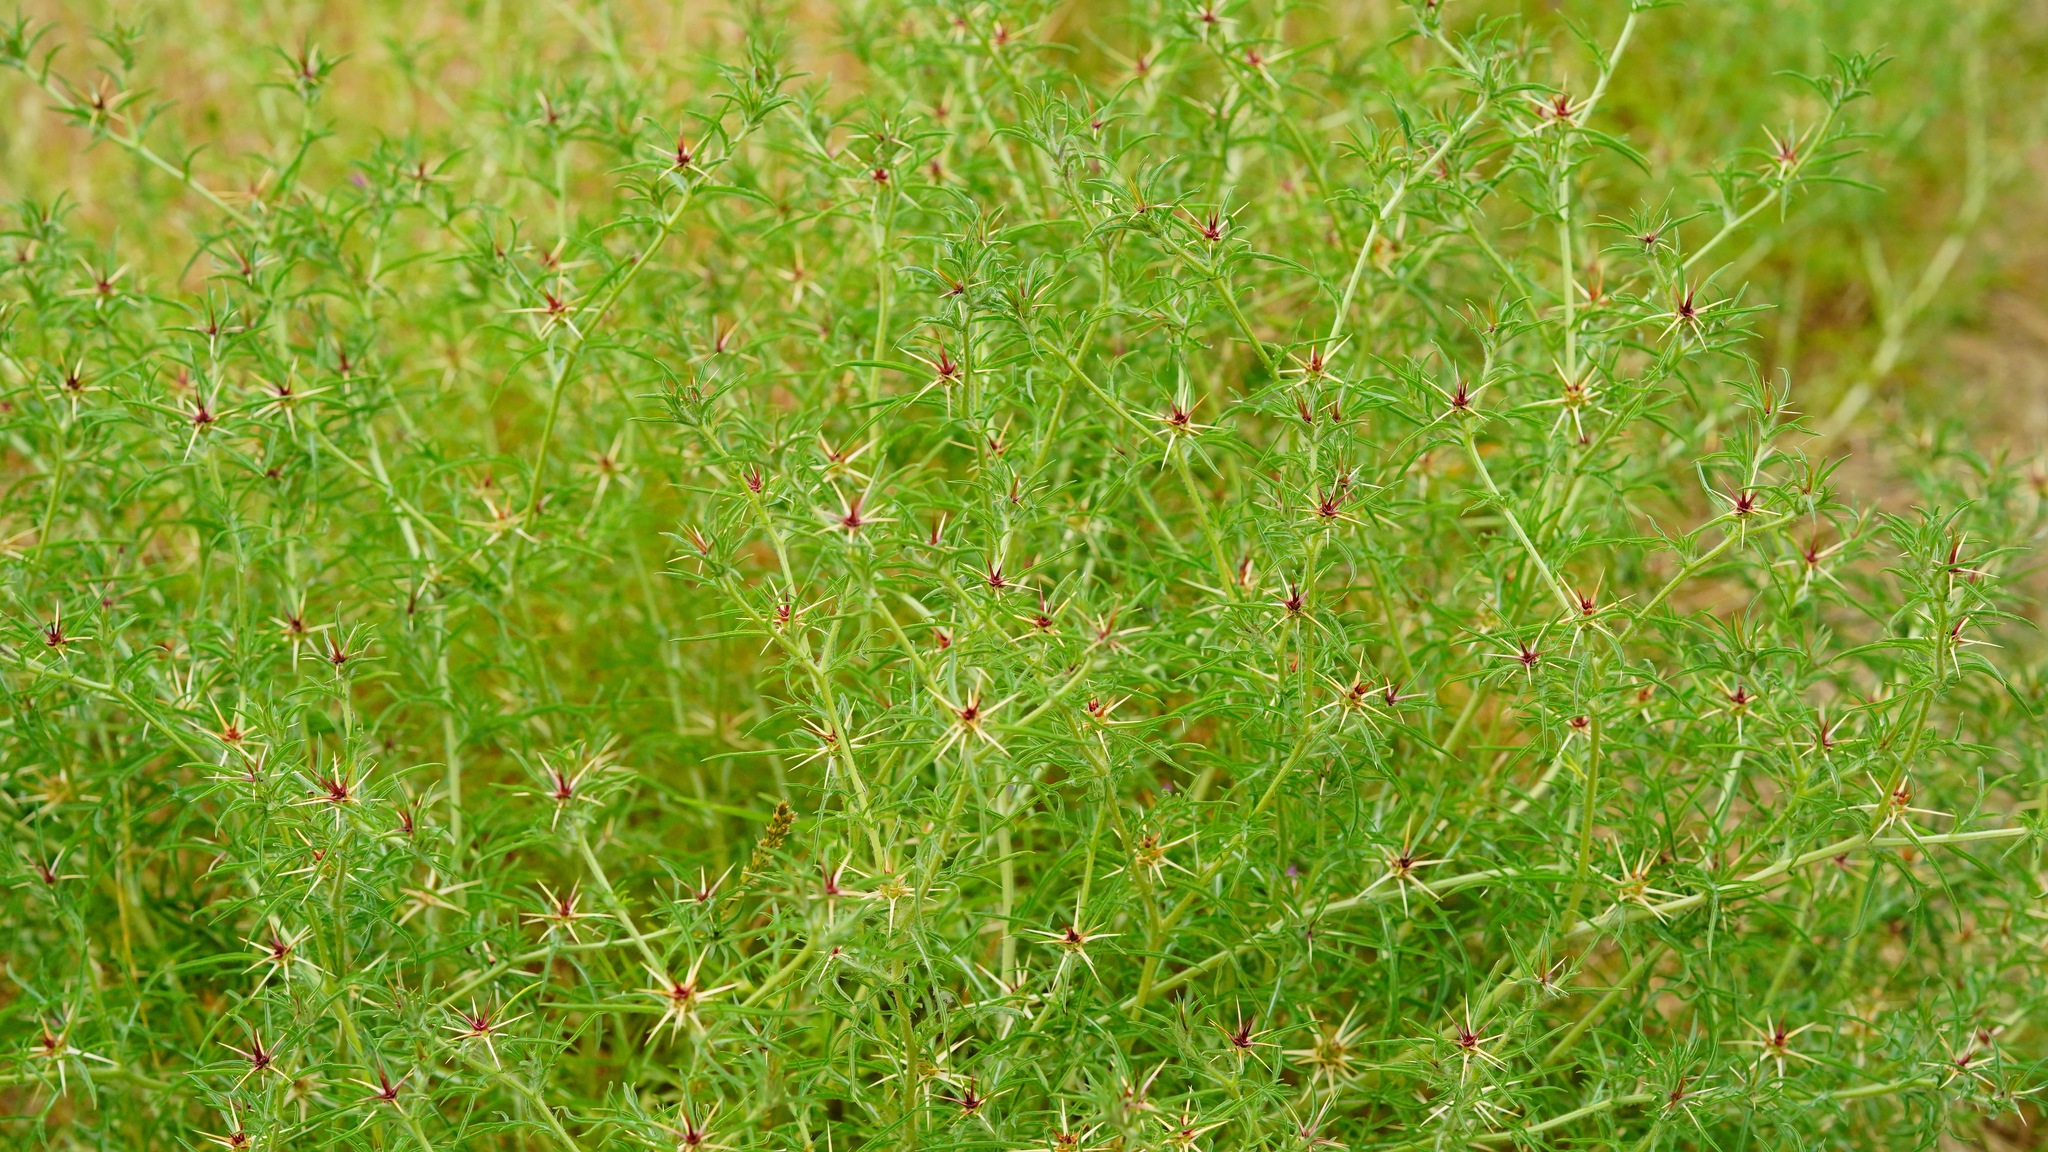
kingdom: Plantae
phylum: Tracheophyta
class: Magnoliopsida
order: Asterales
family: Asteraceae
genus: Centaurea
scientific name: Centaurea calcitrapa
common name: Red star-thistle
